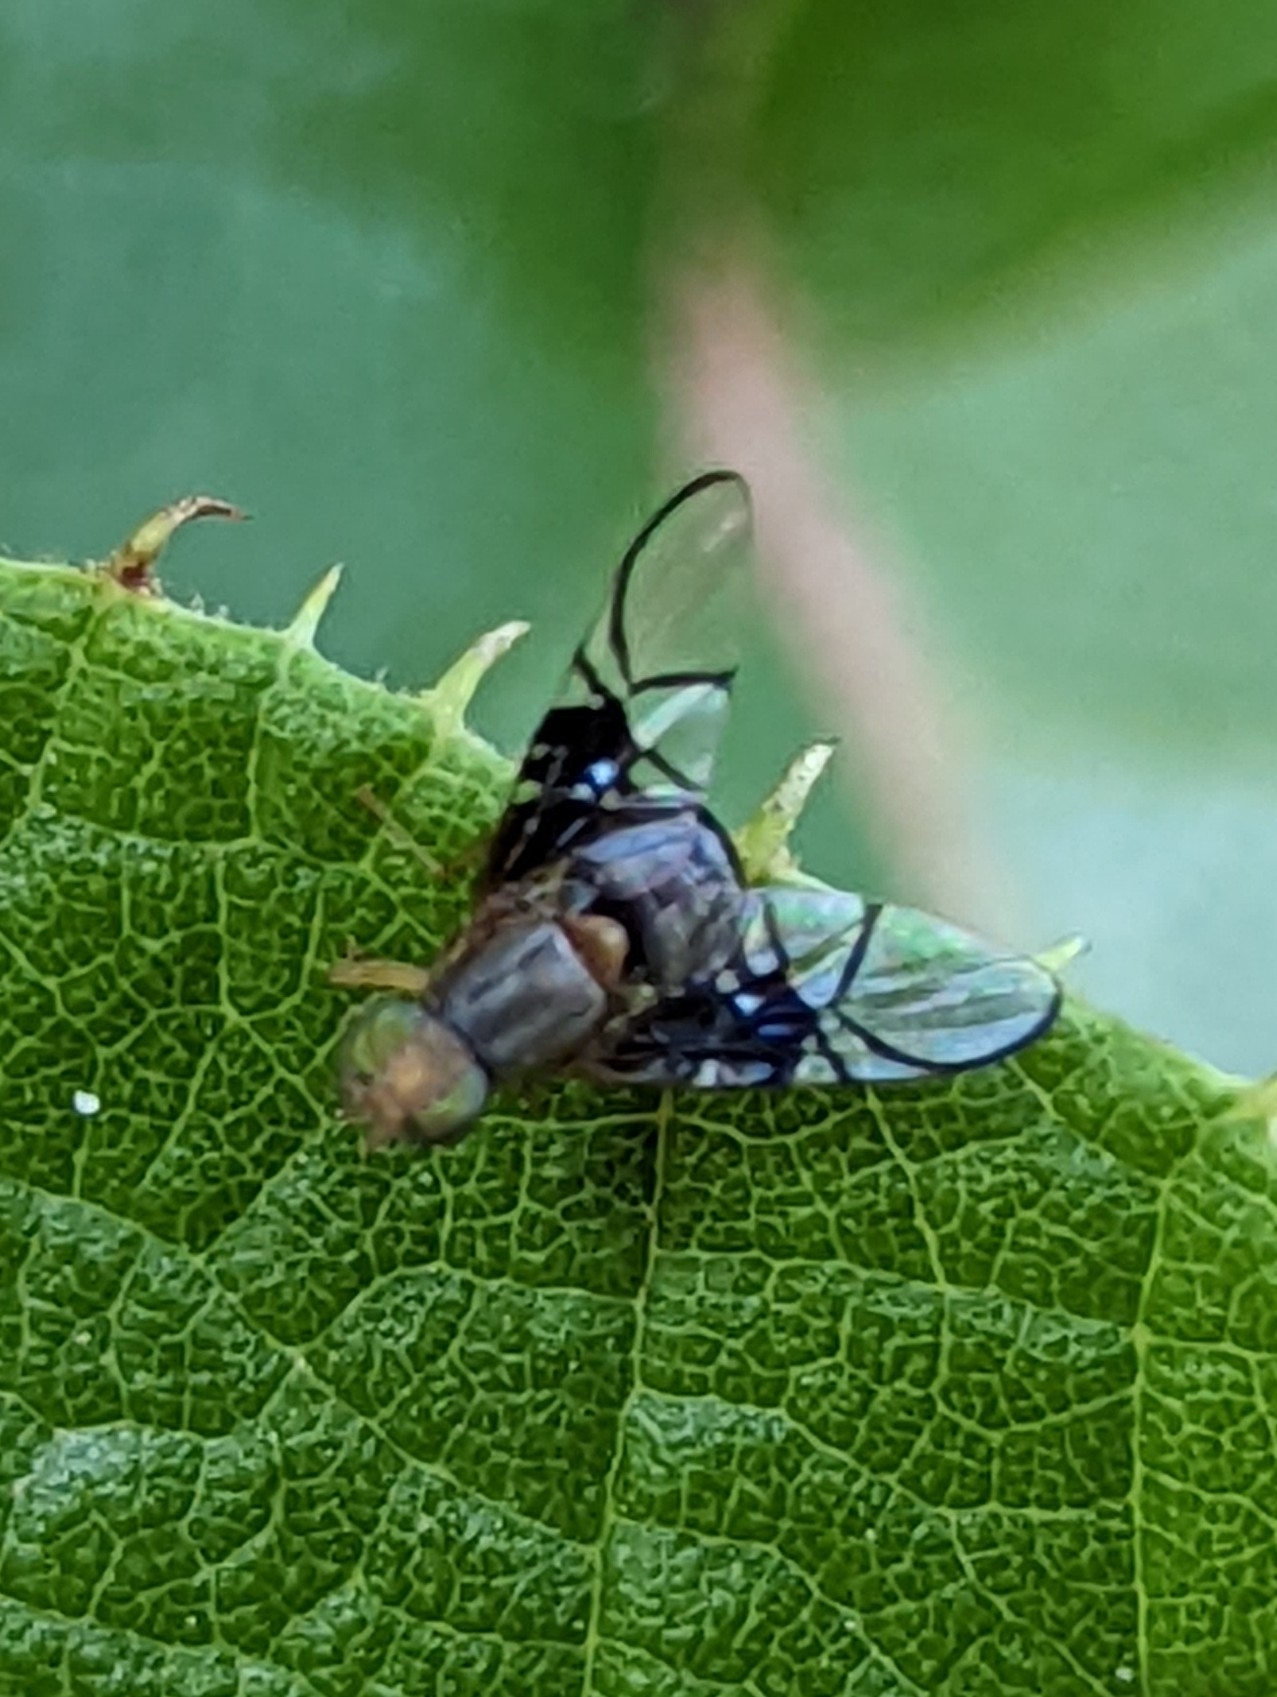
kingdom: Animalia
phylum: Arthropoda
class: Insecta
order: Diptera
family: Tephritidae
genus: Anomoia
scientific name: Anomoia purmunda
